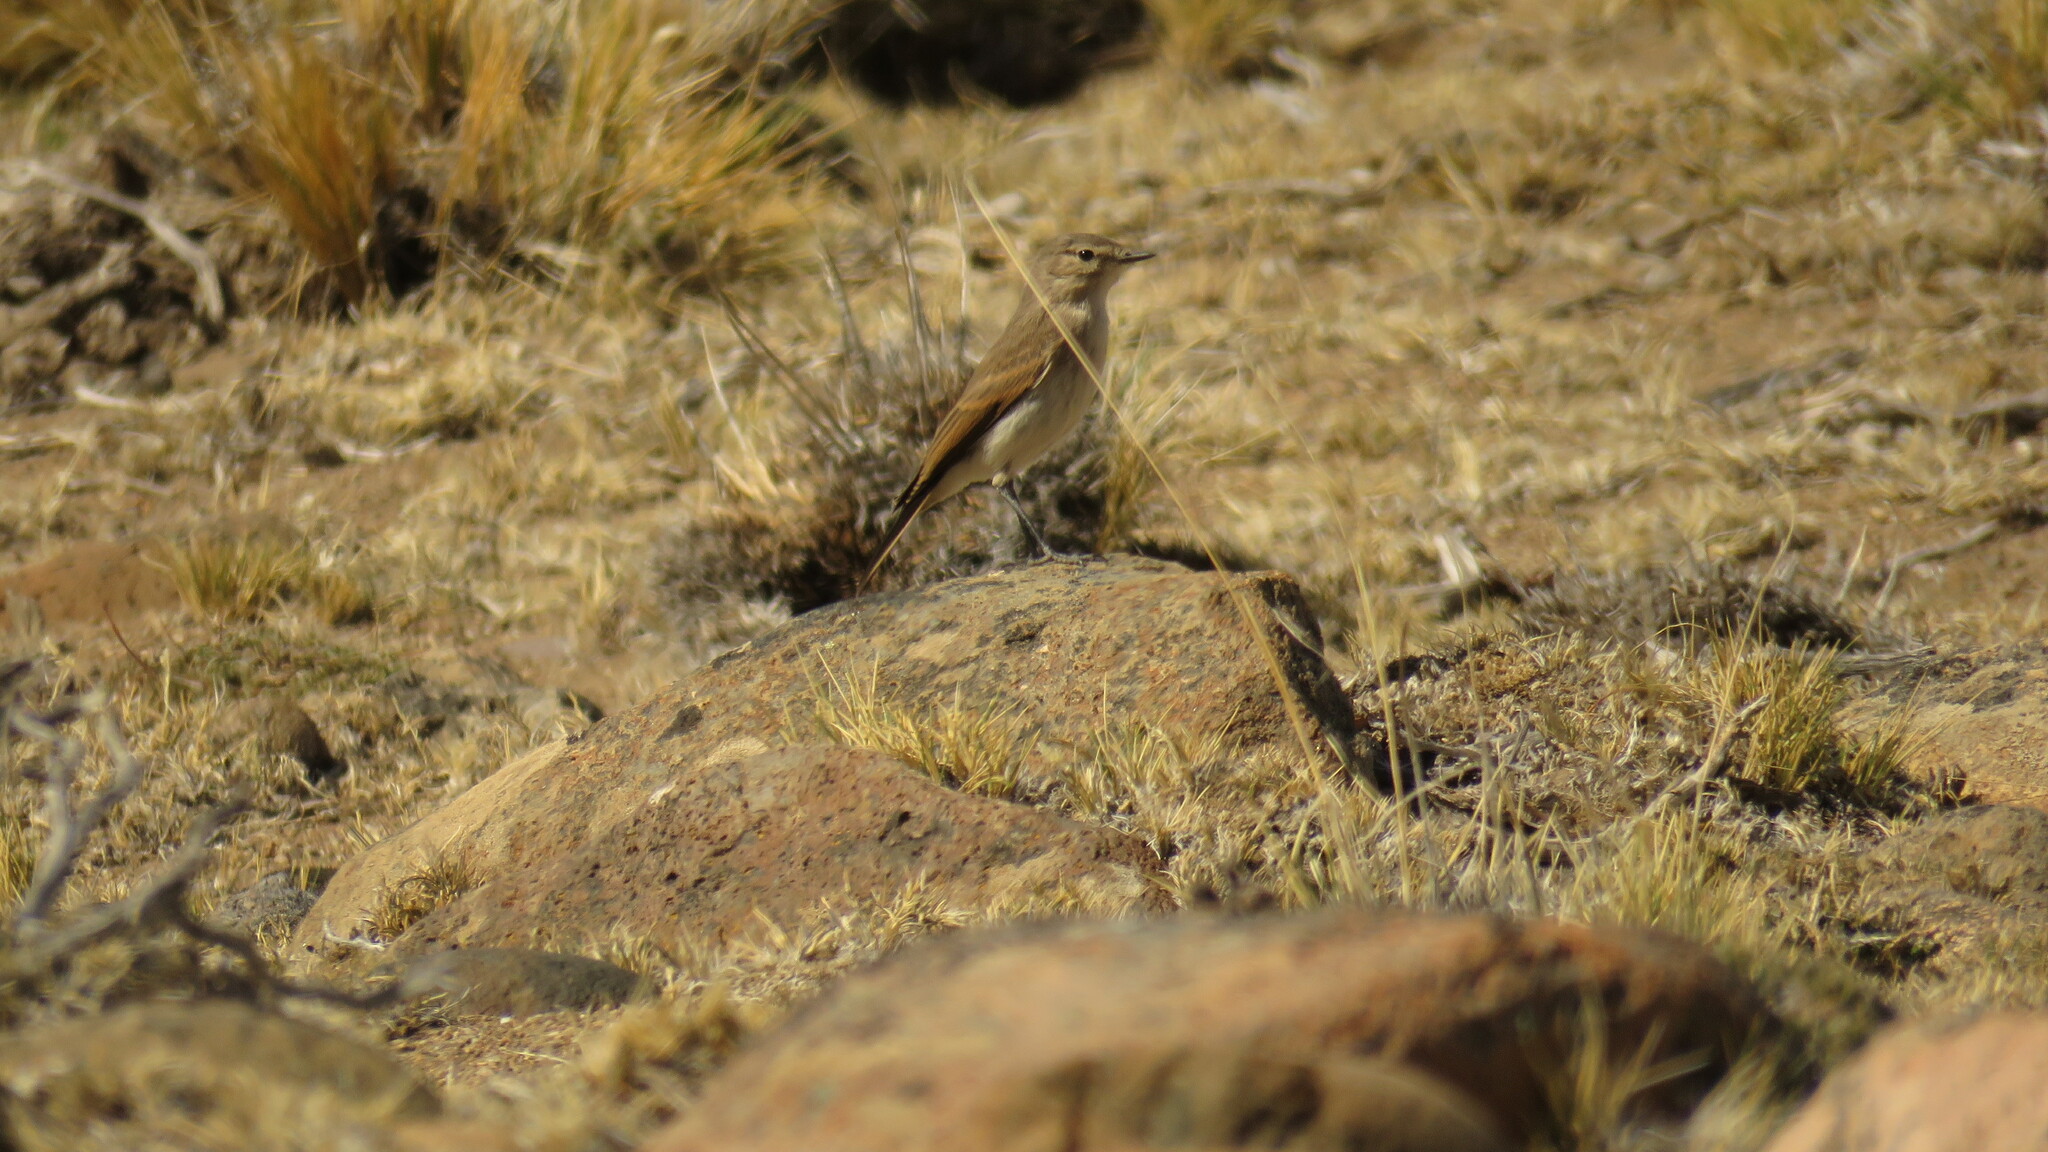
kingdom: Animalia
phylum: Chordata
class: Aves
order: Passeriformes
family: Tyrannidae
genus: Muscisaxicola
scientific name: Muscisaxicola maculirostris
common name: Spot-billed ground tyrant
